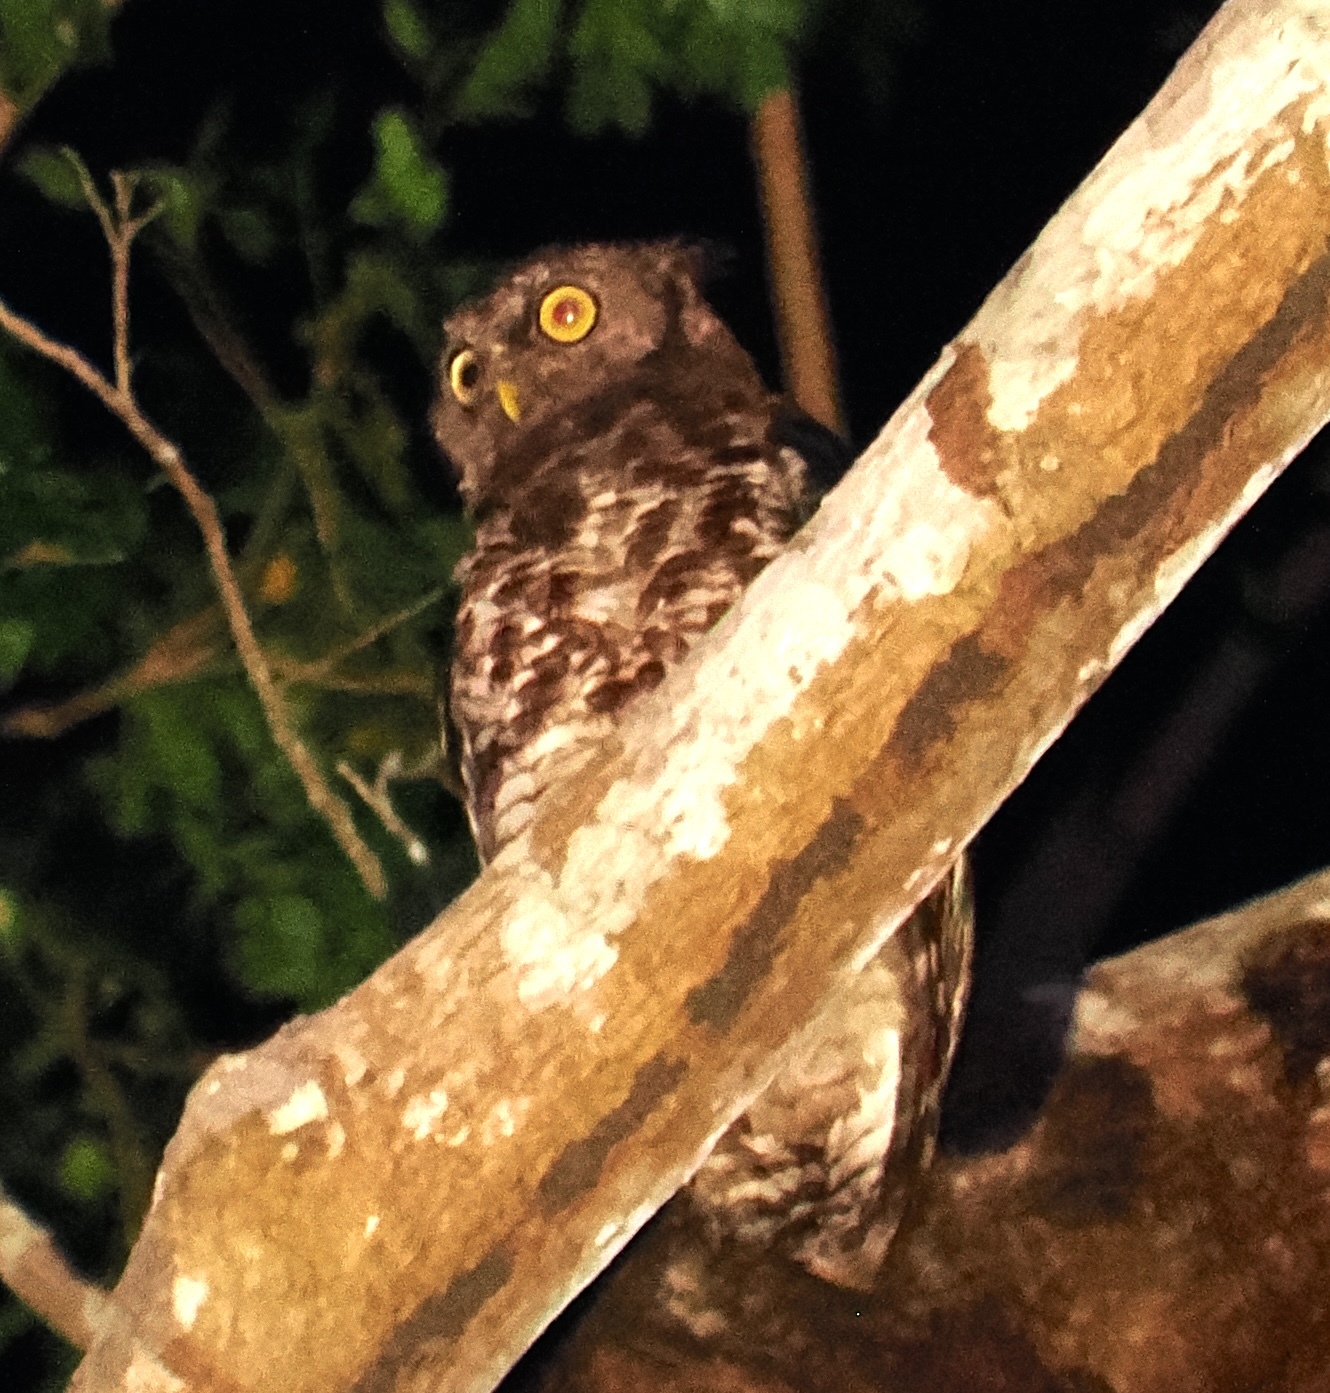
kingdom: Animalia
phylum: Chordata
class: Aves
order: Strigiformes
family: Strigidae
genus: Bubo
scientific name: Bubo leucostictus
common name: Akun eagle-owl
